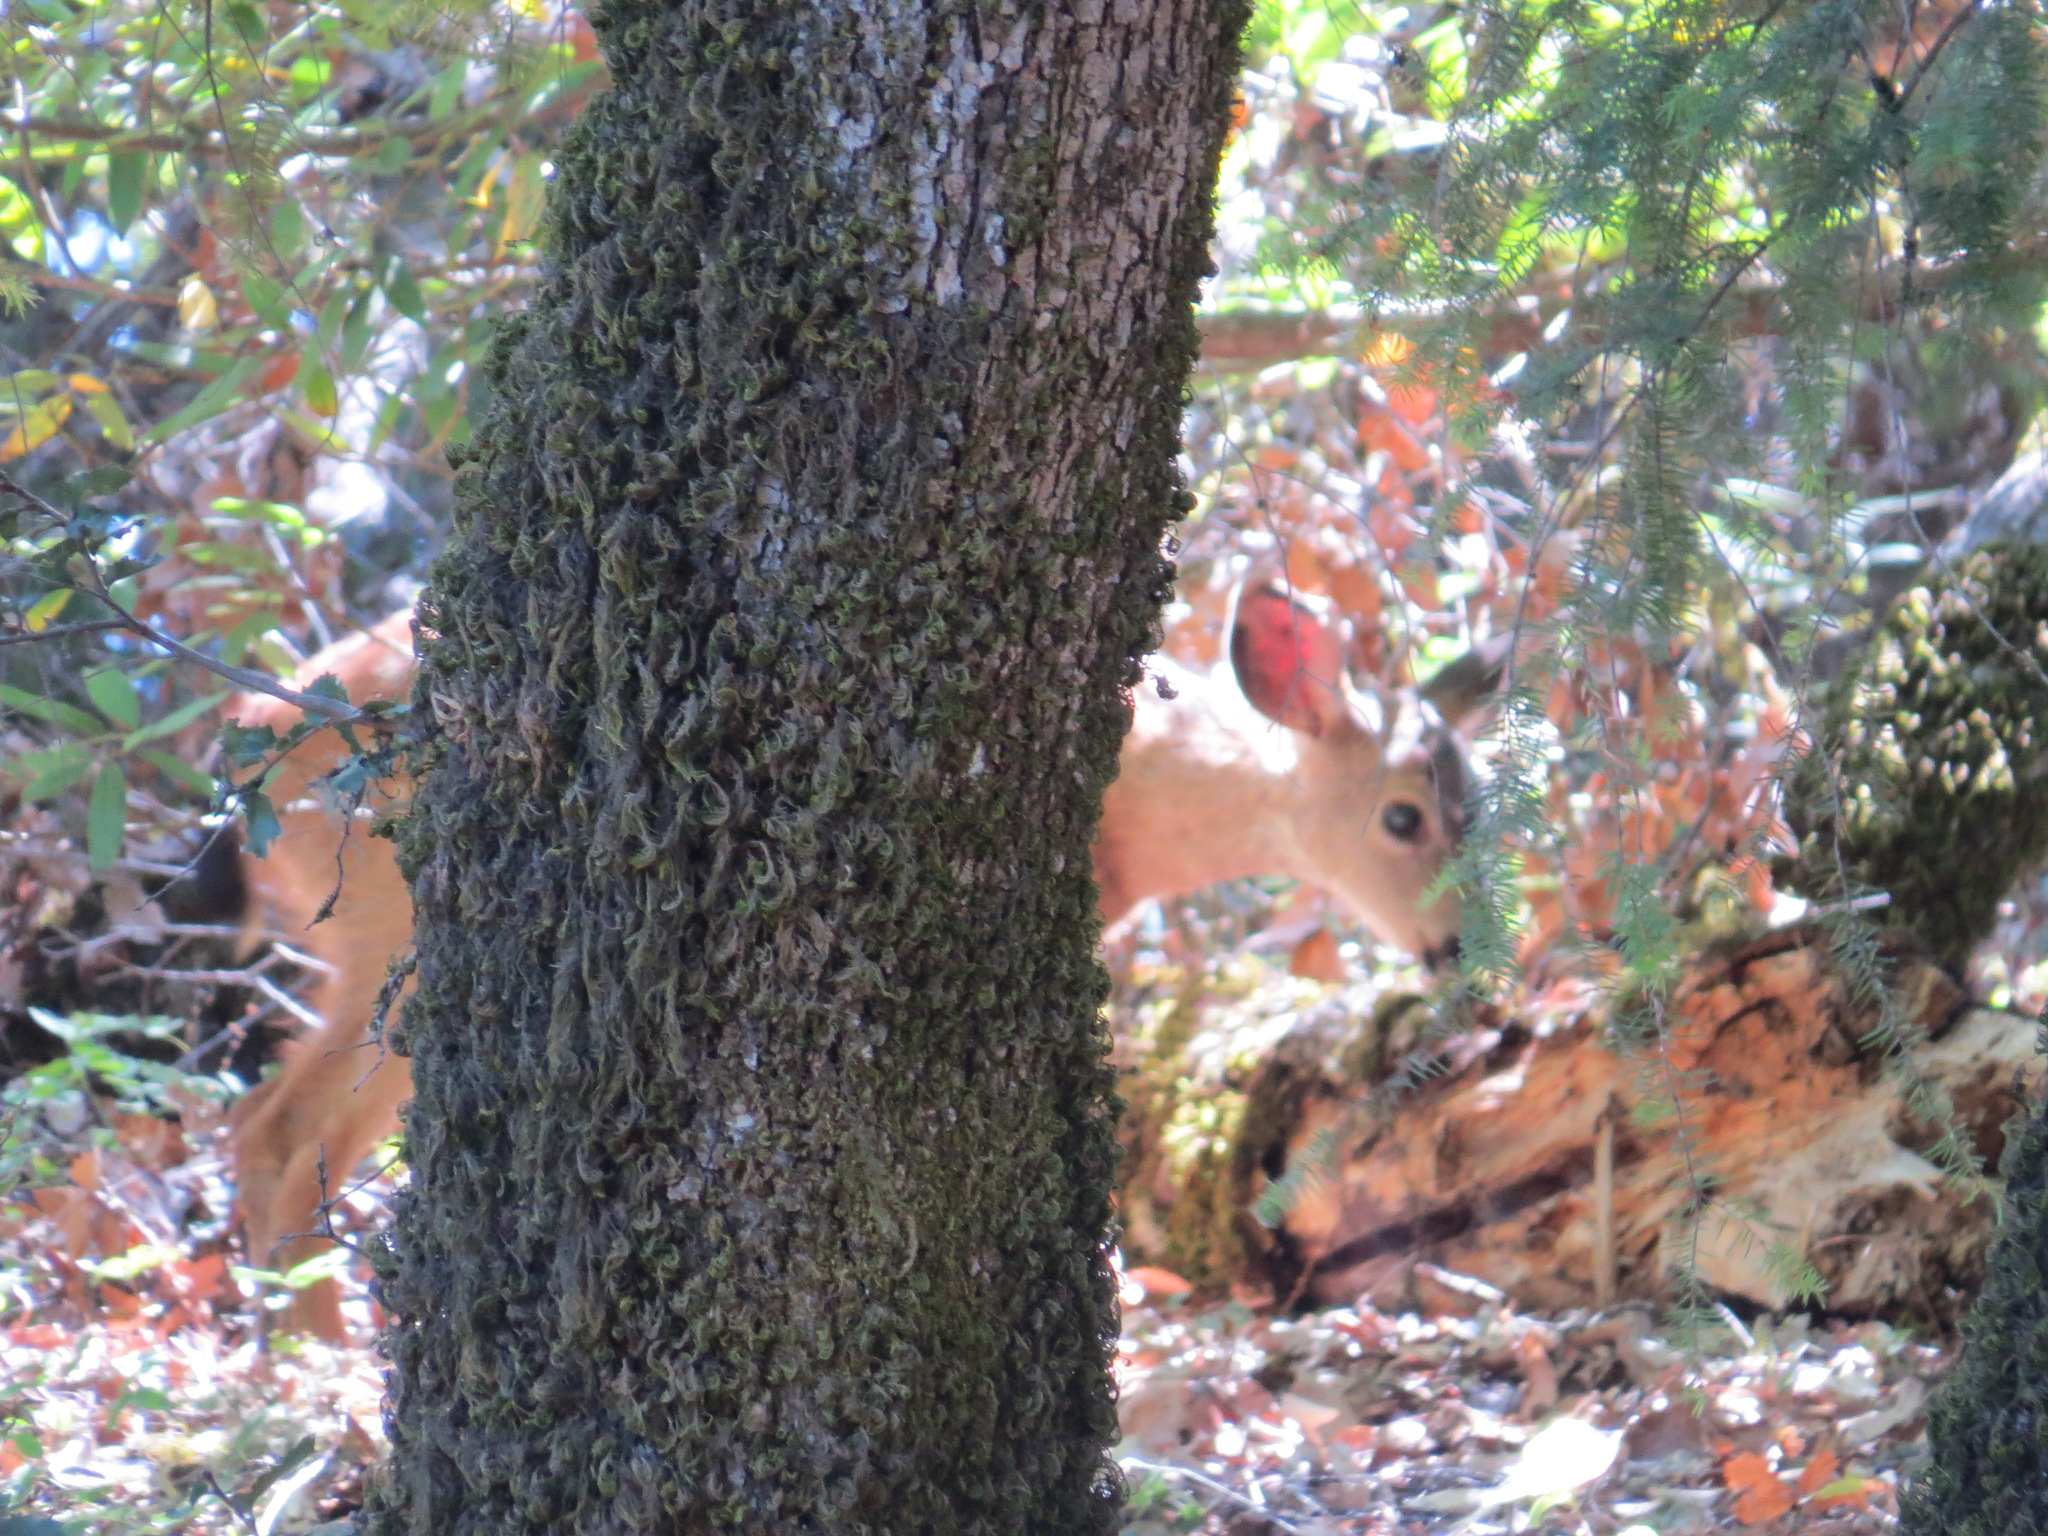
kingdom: Animalia
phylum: Chordata
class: Mammalia
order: Artiodactyla
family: Cervidae
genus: Odocoileus
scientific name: Odocoileus hemionus
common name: Mule deer
